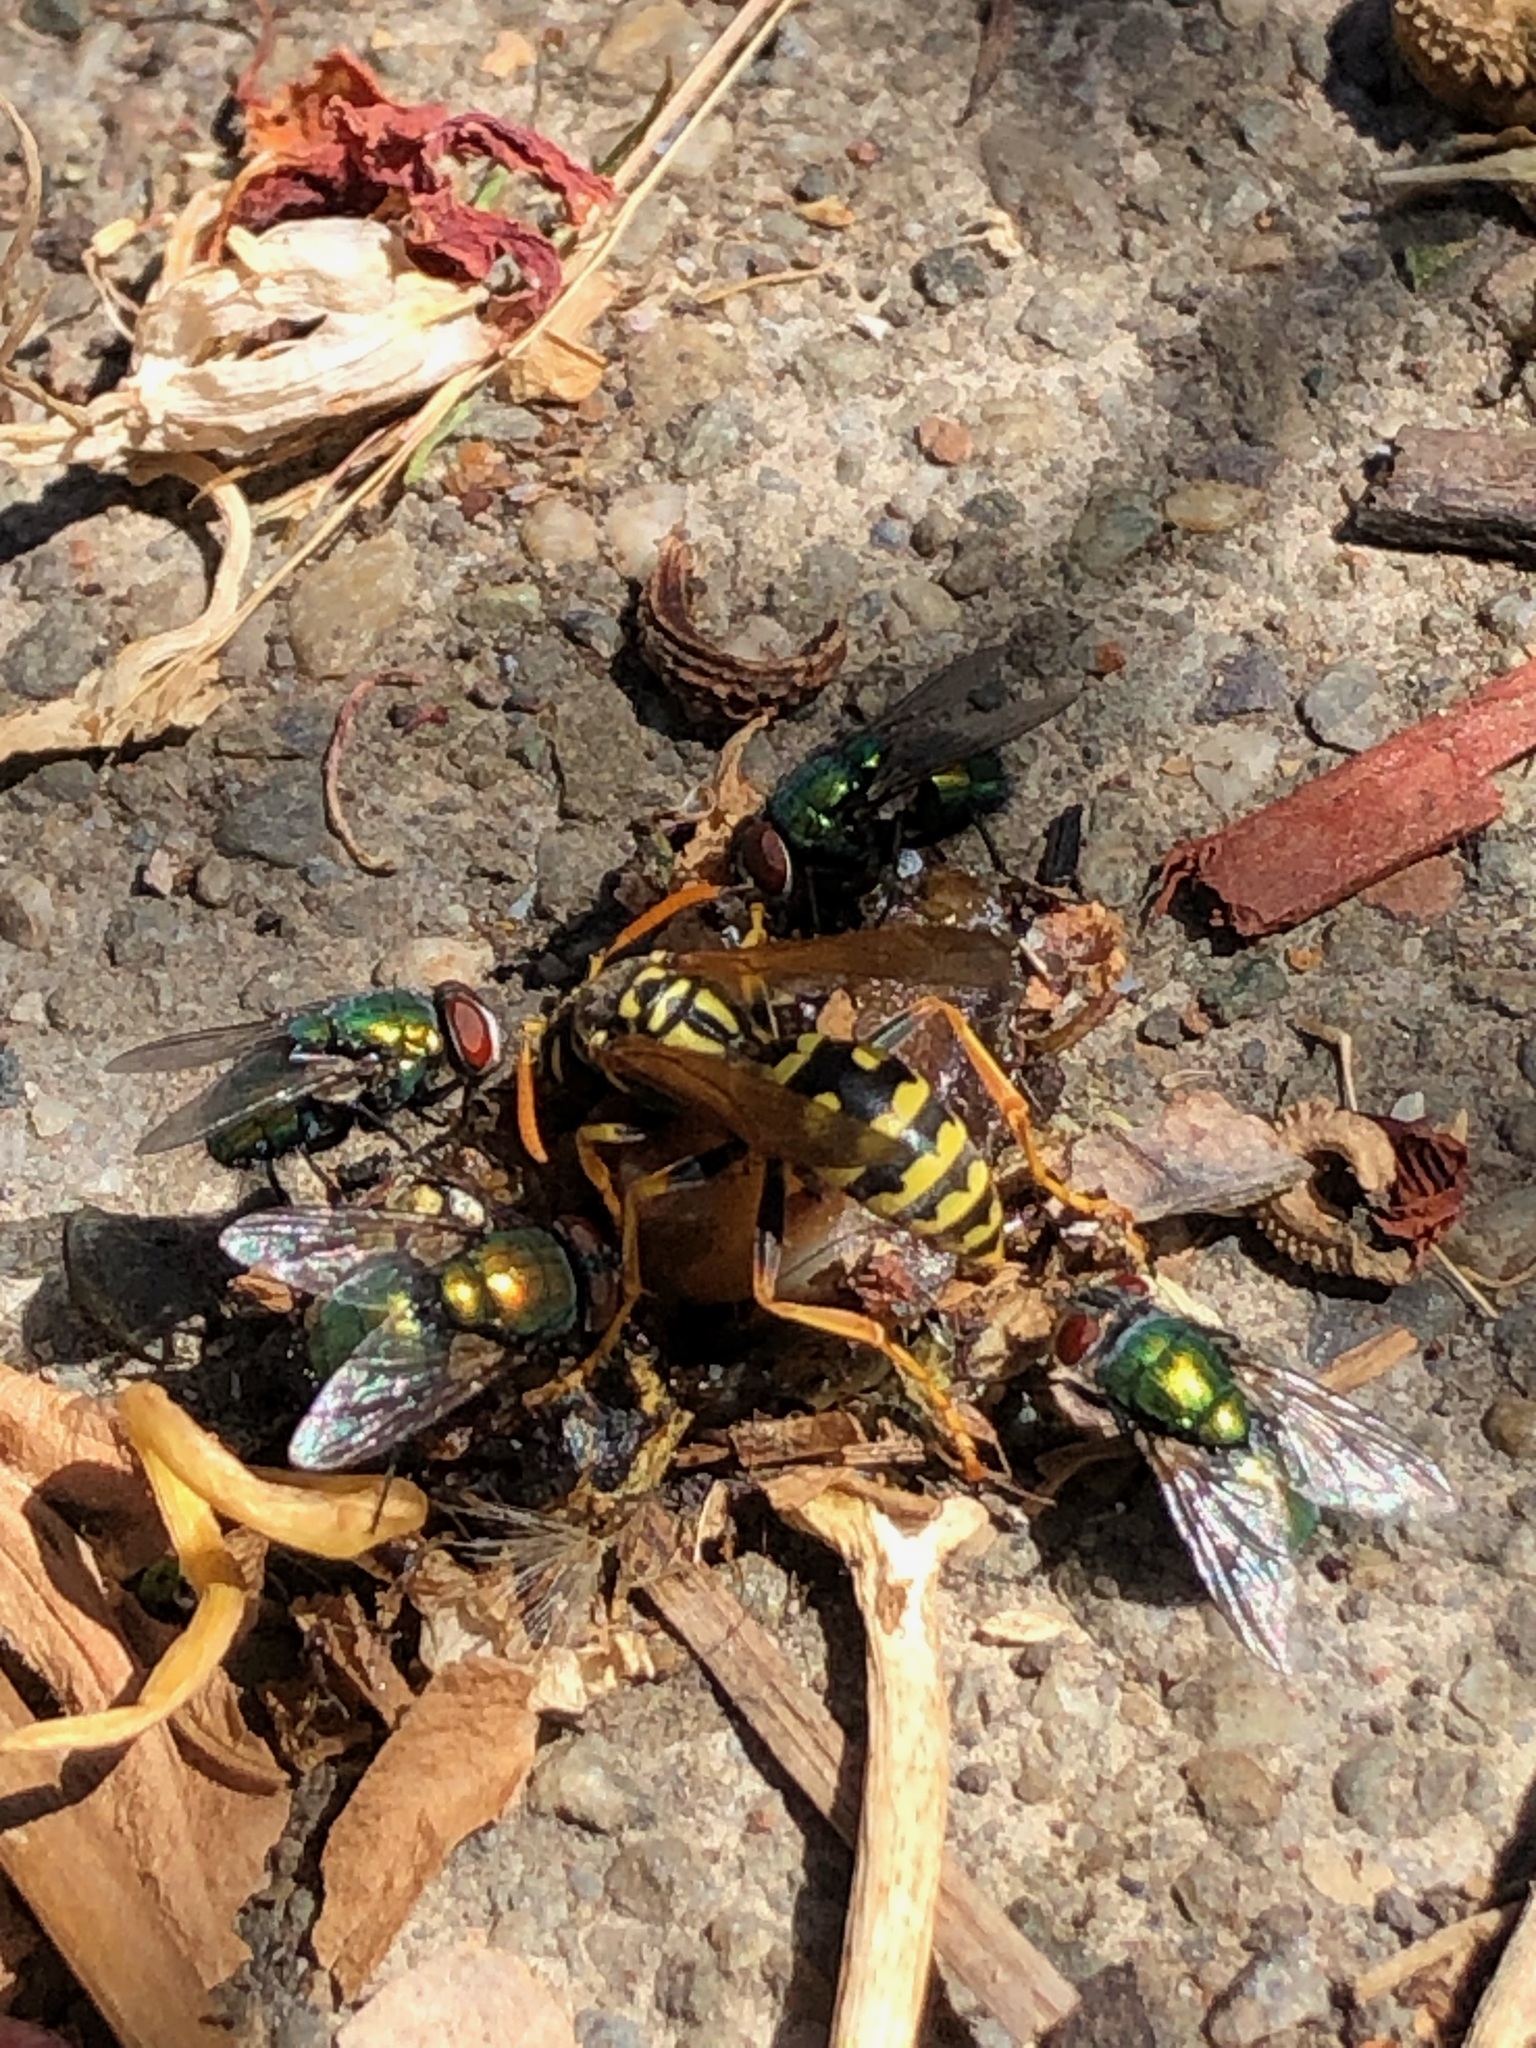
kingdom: Animalia
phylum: Arthropoda
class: Insecta
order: Hymenoptera
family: Eumenidae
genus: Polistes
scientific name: Polistes dominula
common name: Paper wasp
